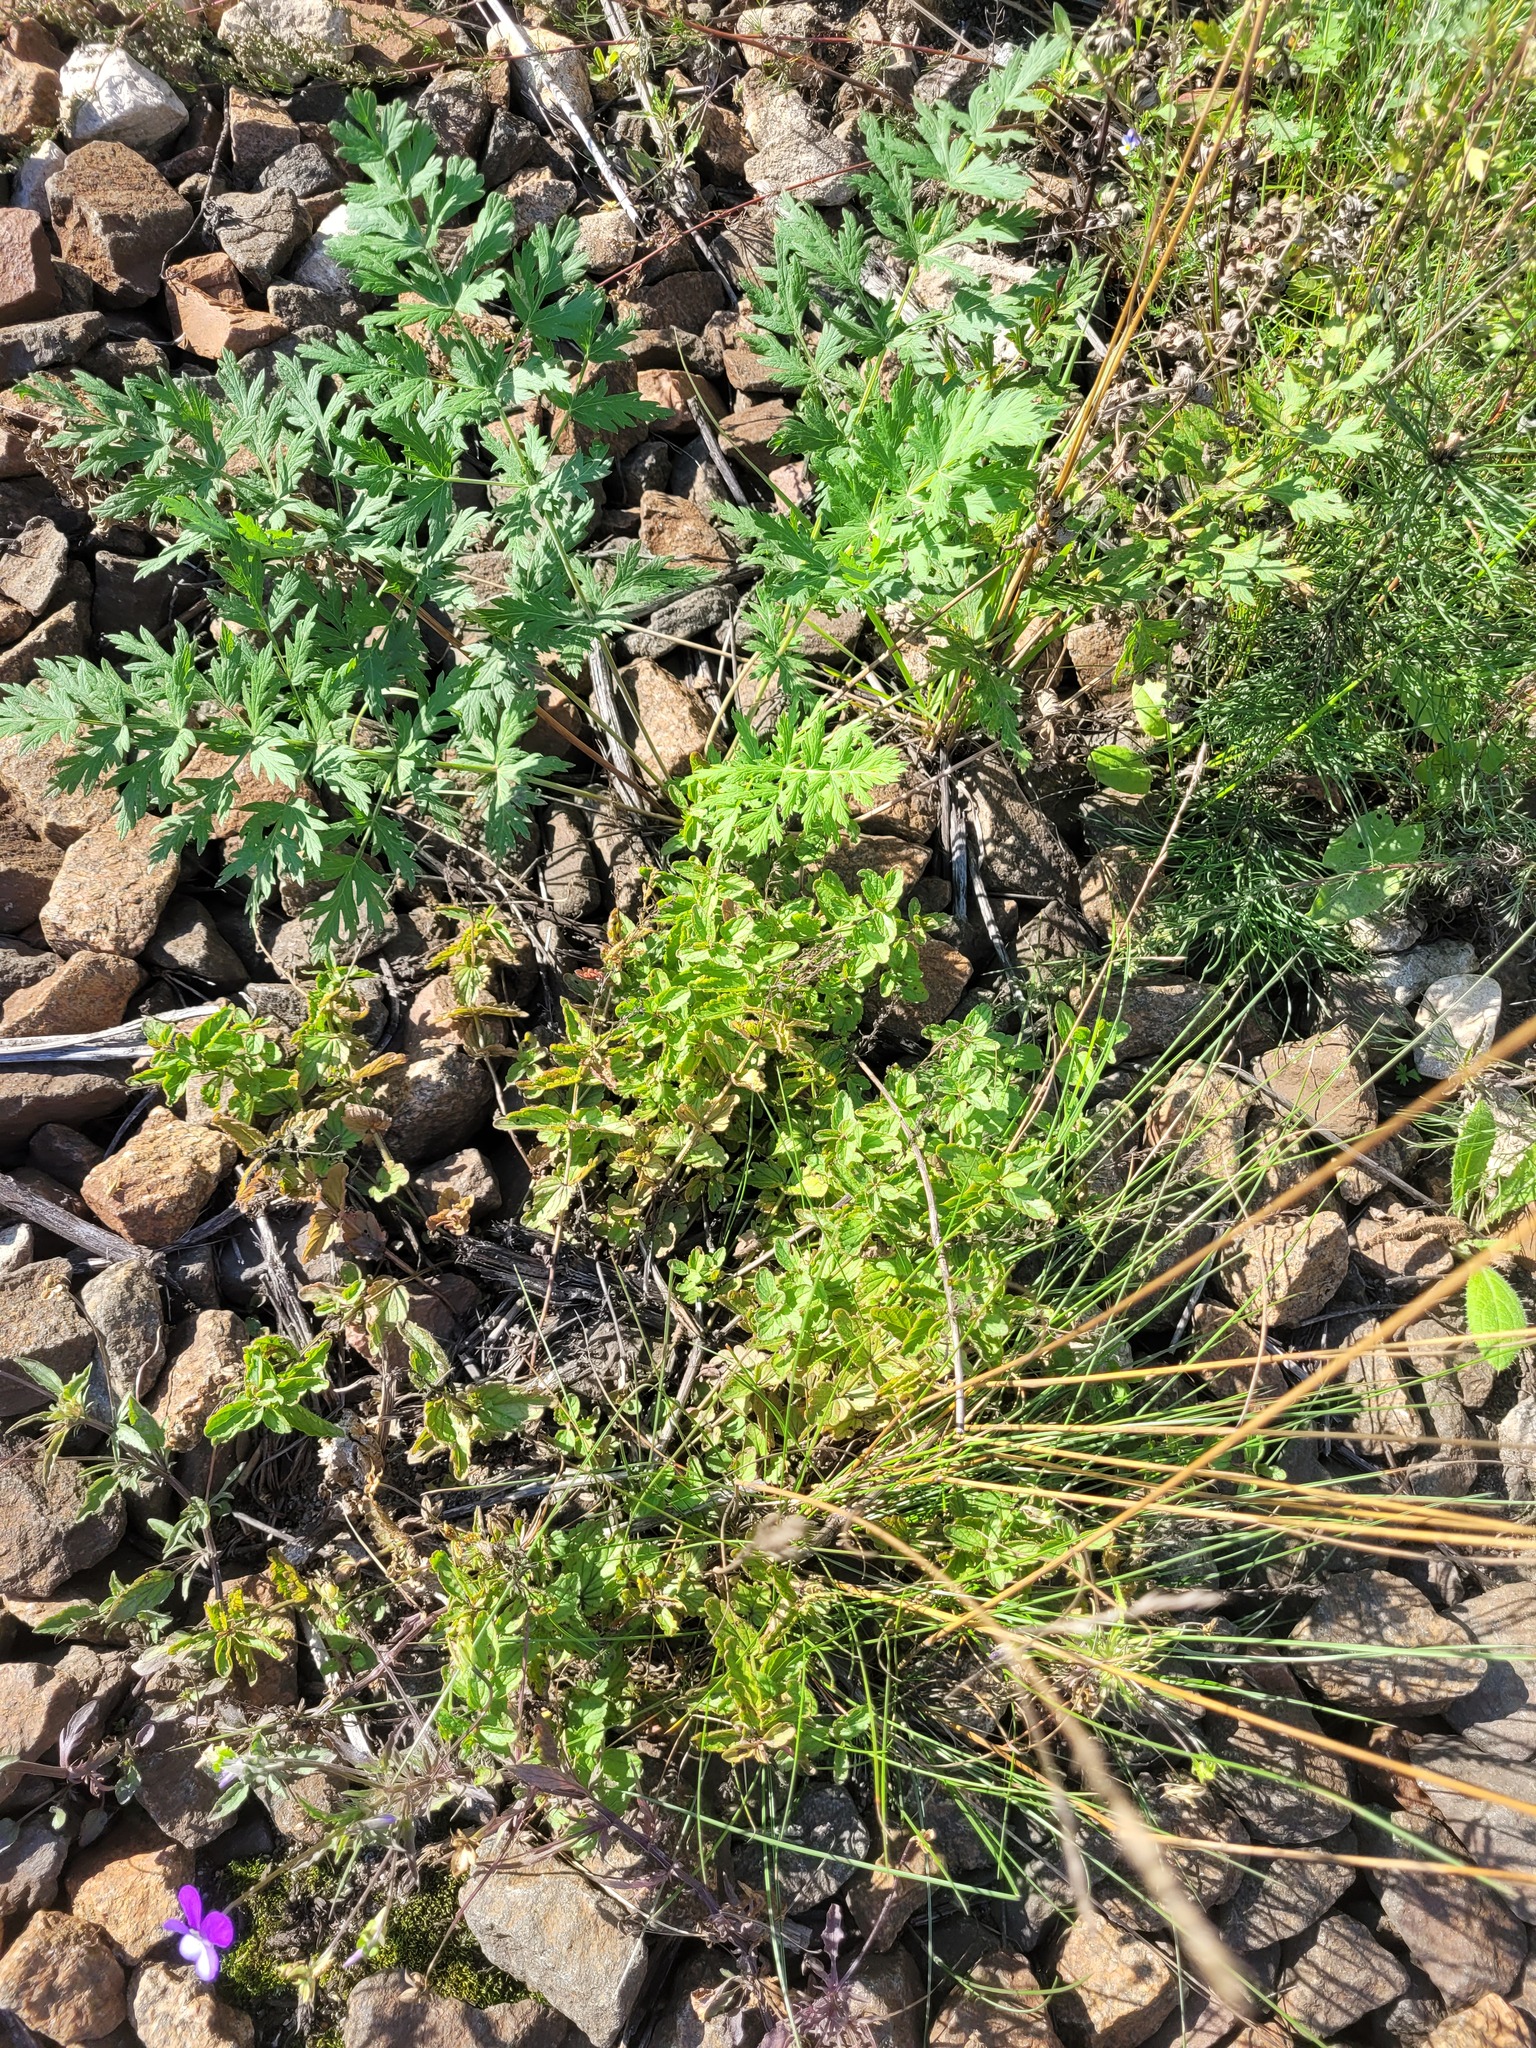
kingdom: Plantae
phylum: Tracheophyta
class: Magnoliopsida
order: Lamiales
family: Plantaginaceae
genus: Veronica
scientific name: Veronica chamaedrys
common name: Germander speedwell
